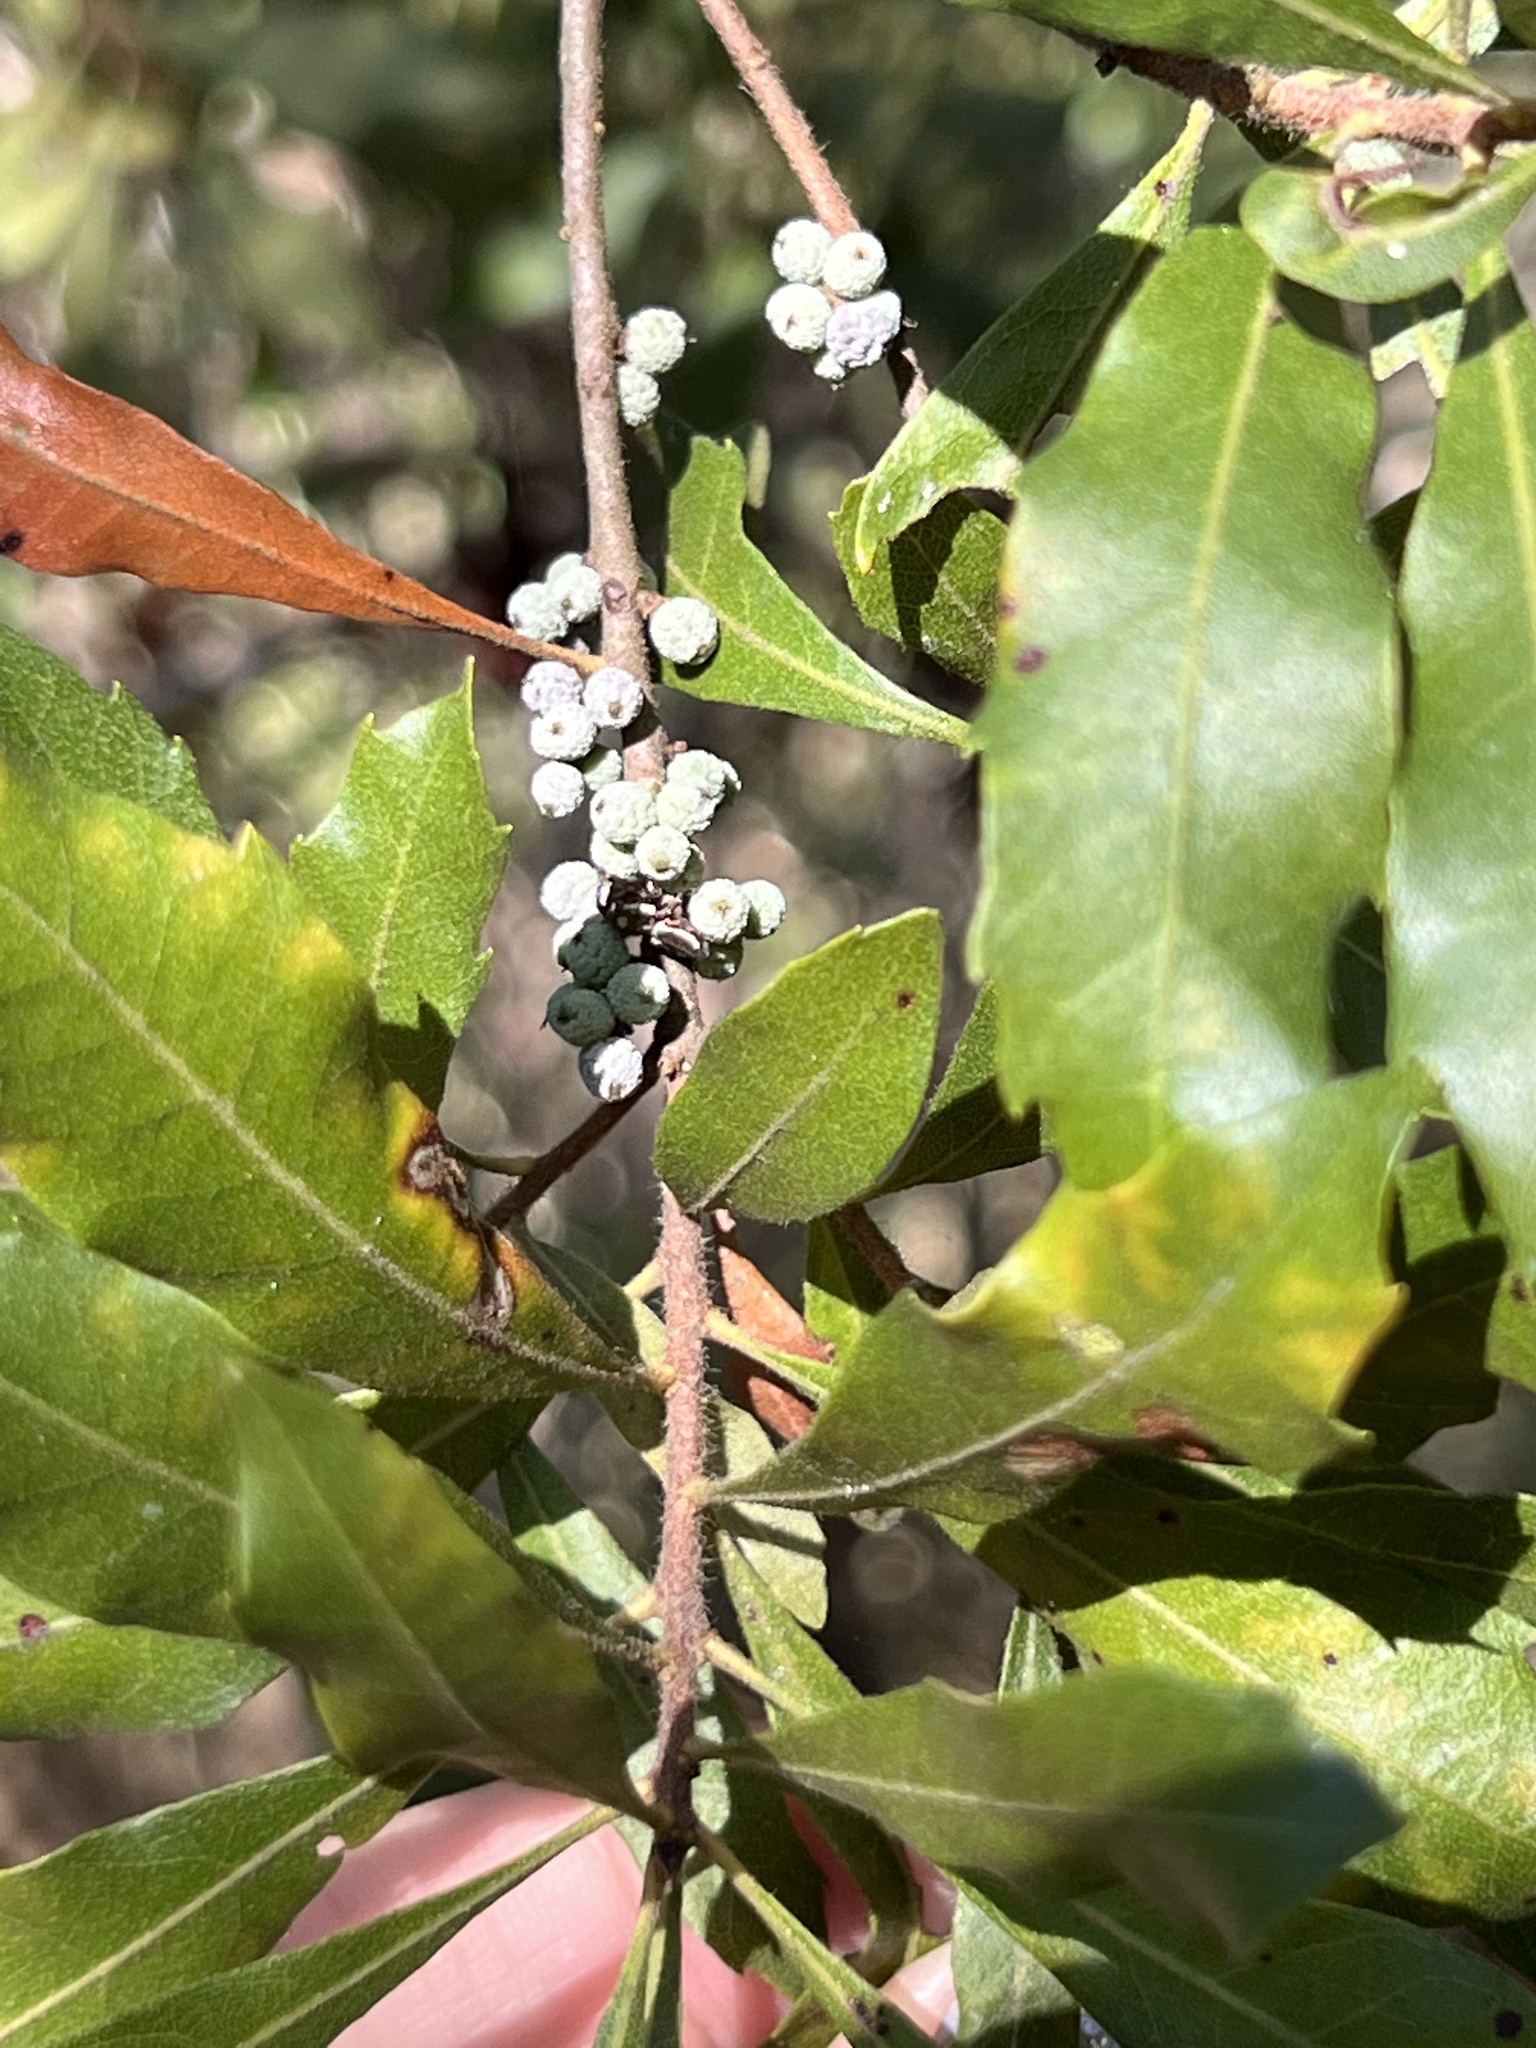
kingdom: Plantae
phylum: Tracheophyta
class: Magnoliopsida
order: Fagales
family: Myricaceae
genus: Morella
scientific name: Morella cerifera
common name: Wax myrtle
